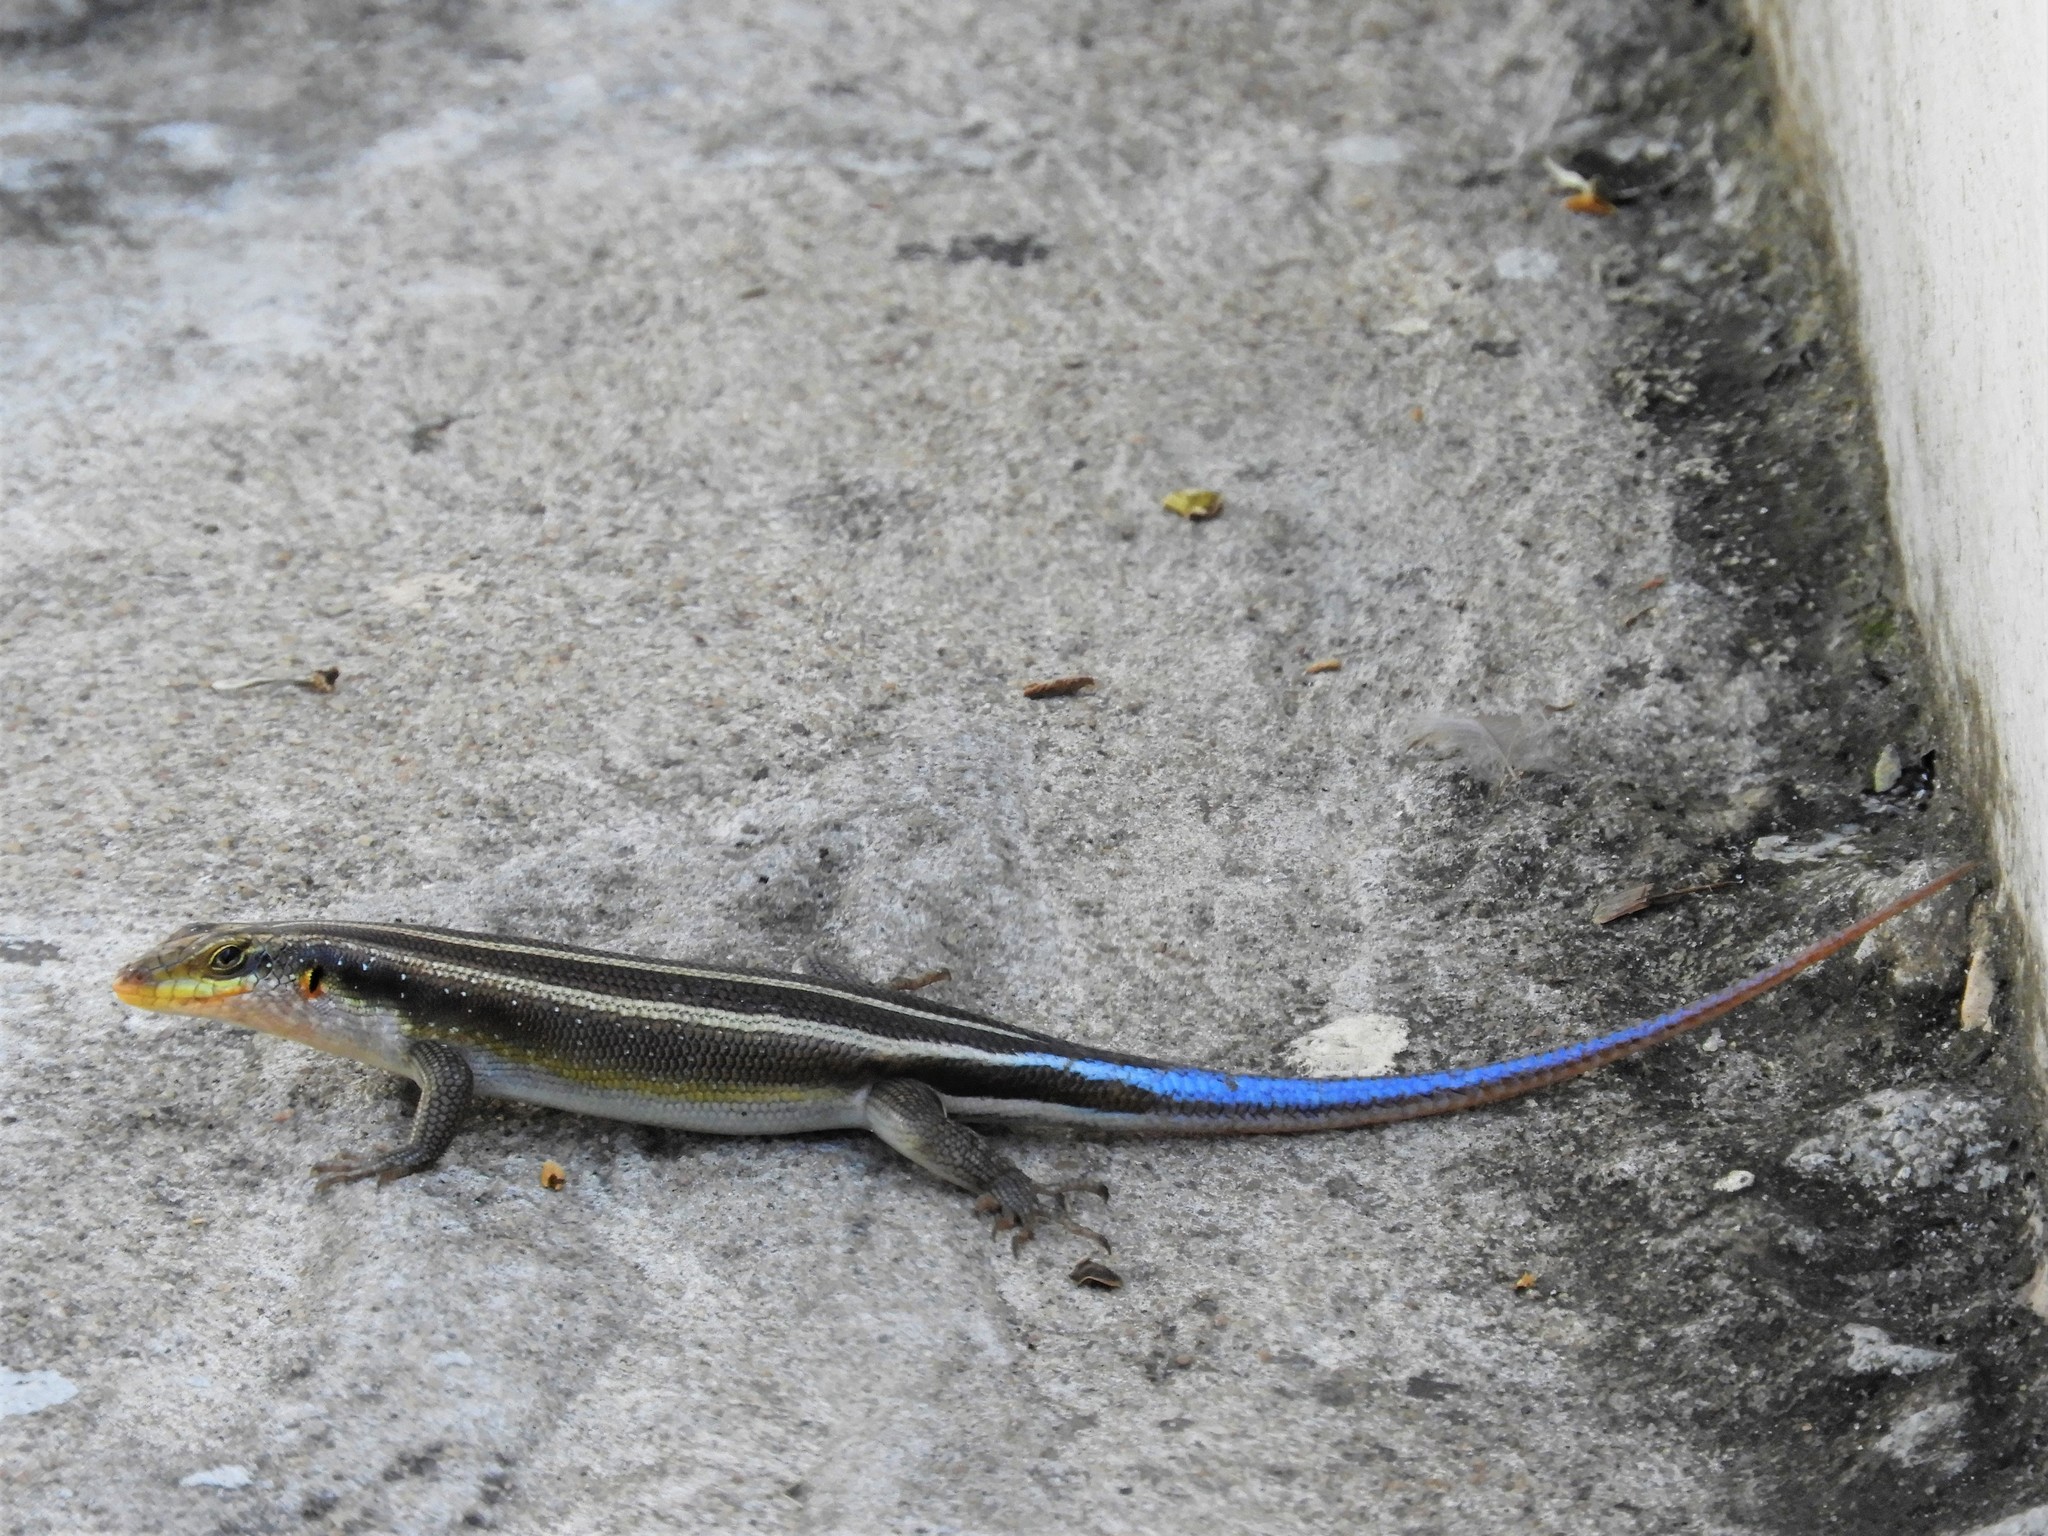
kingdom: Animalia
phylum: Chordata
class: Squamata
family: Scincidae
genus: Trachylepis
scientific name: Trachylepis margaritifera
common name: Rainbow skink
